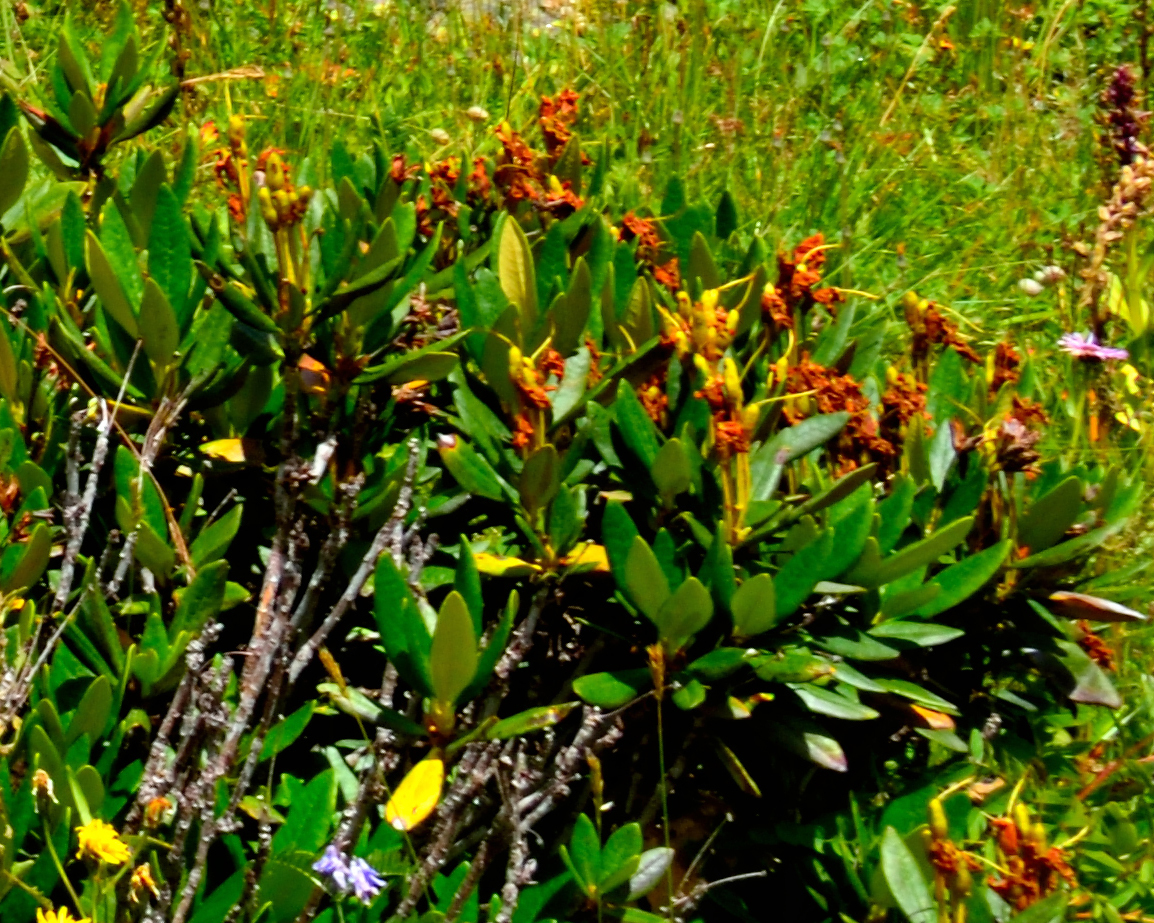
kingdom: Plantae
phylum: Tracheophyta
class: Magnoliopsida
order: Ericales
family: Ericaceae
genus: Rhododendron
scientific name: Rhododendron caucasicum
